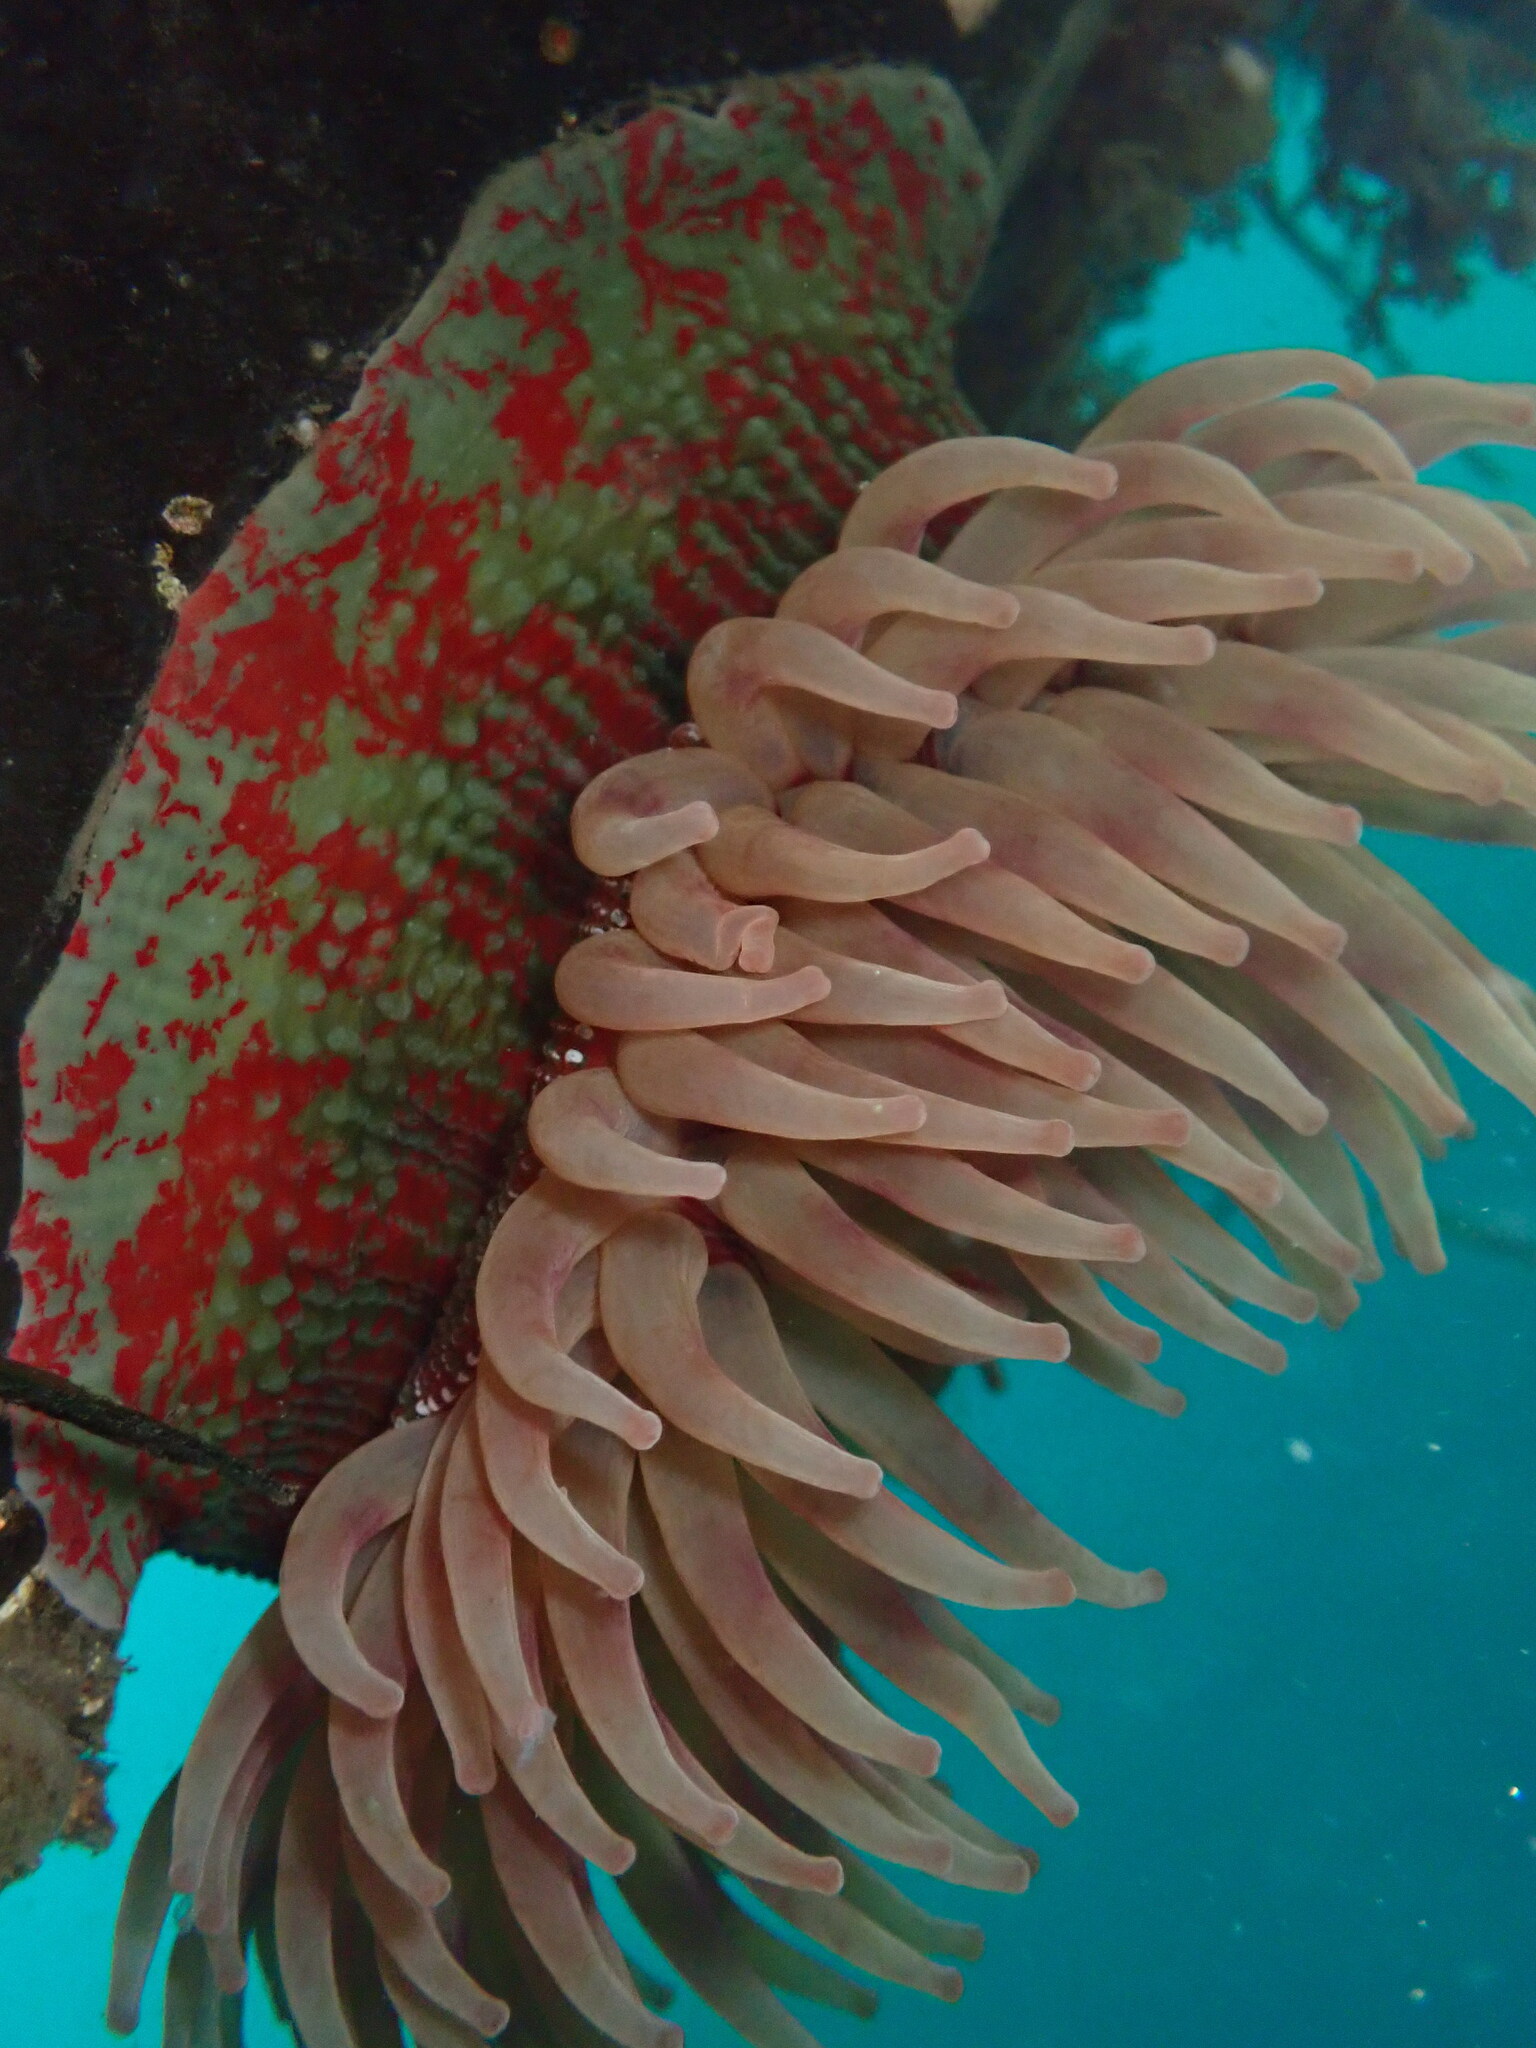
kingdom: Animalia
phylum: Cnidaria
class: Anthozoa
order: Actiniaria
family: Actiniidae
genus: Urticina
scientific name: Urticina grebelnyi
